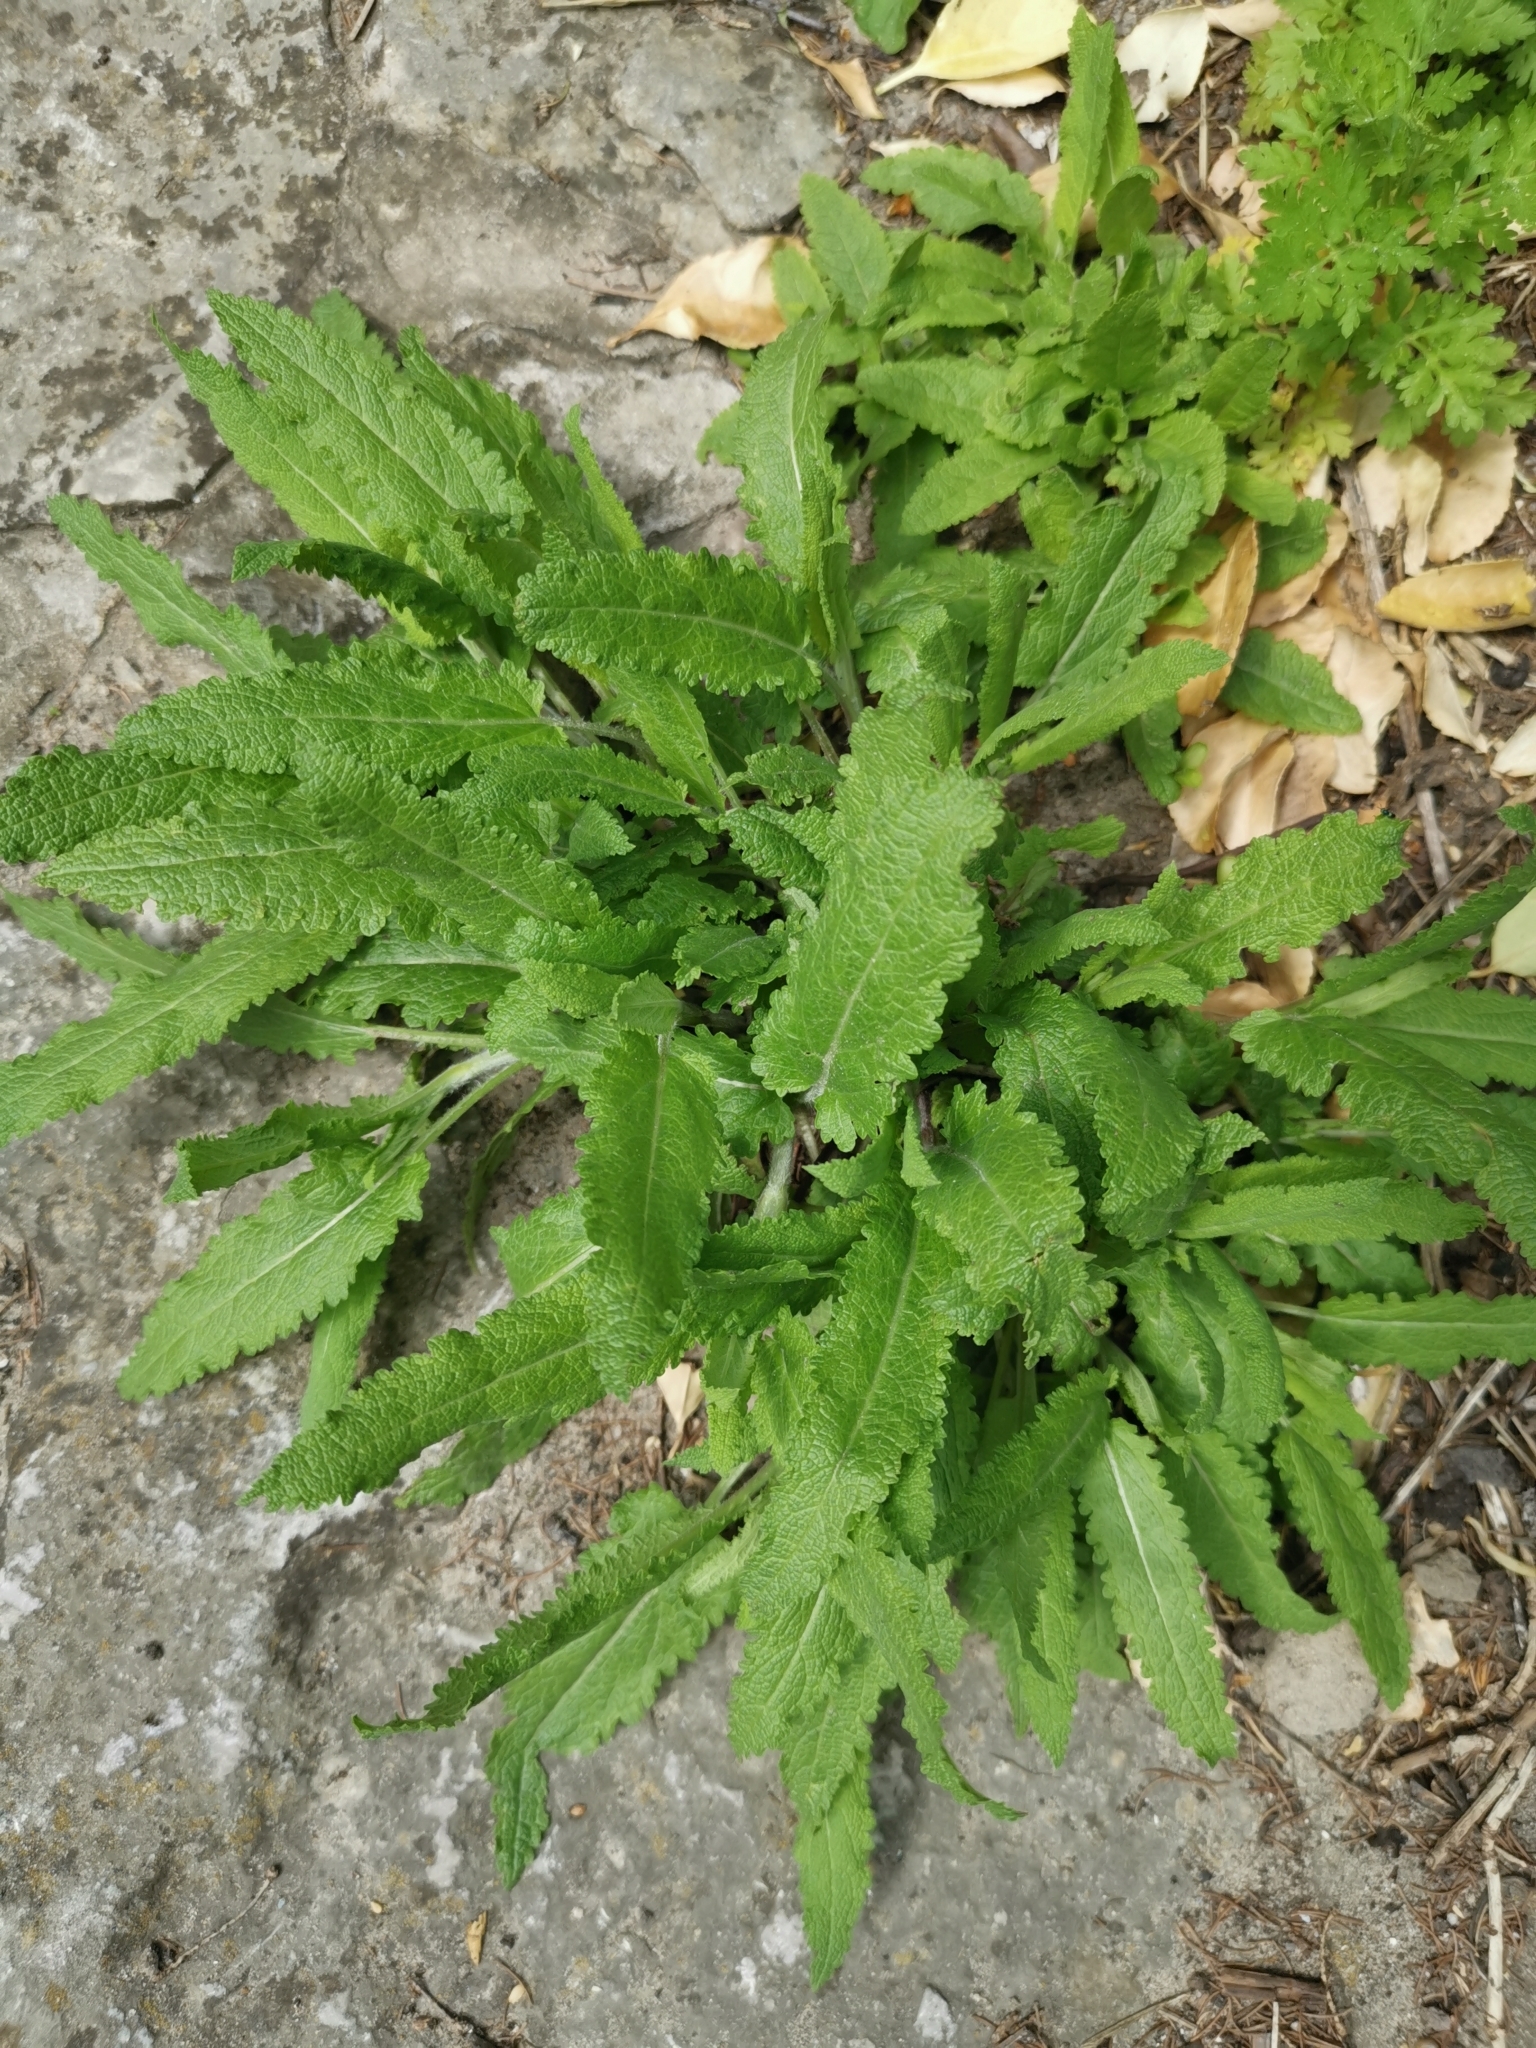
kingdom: Plantae
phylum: Tracheophyta
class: Magnoliopsida
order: Lamiales
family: Lamiaceae
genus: Salvia
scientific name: Salvia nemorosa
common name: Balkan clary
